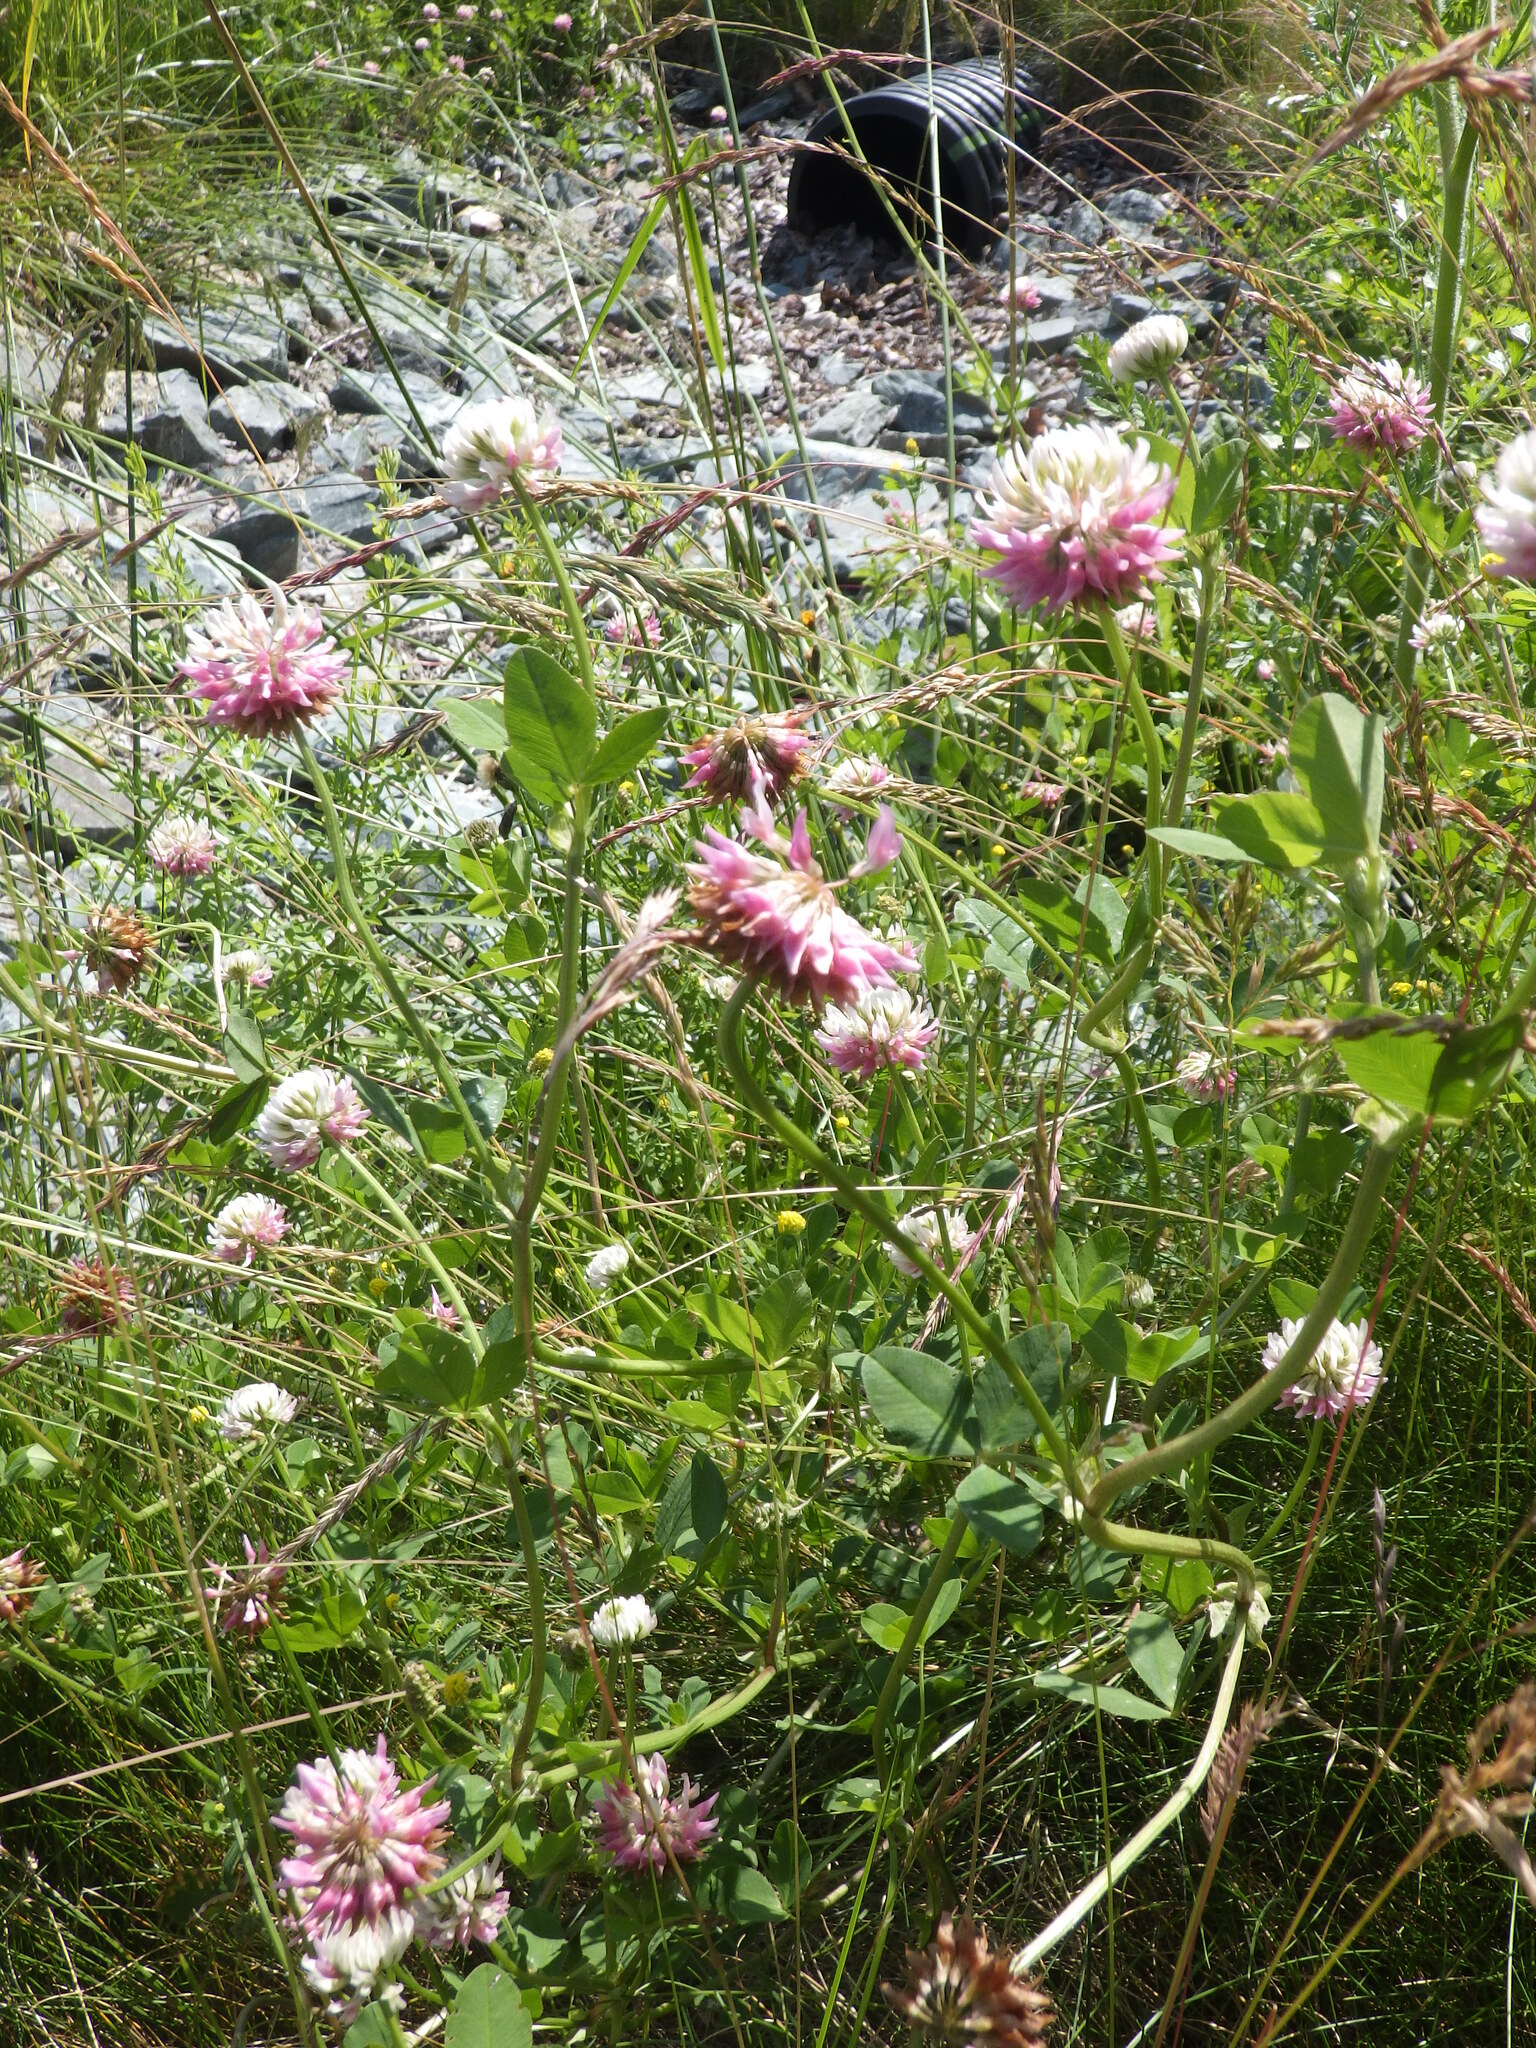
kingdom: Plantae
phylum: Tracheophyta
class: Magnoliopsida
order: Fabales
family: Fabaceae
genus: Trifolium
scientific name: Trifolium hybridum
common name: Alsike clover
